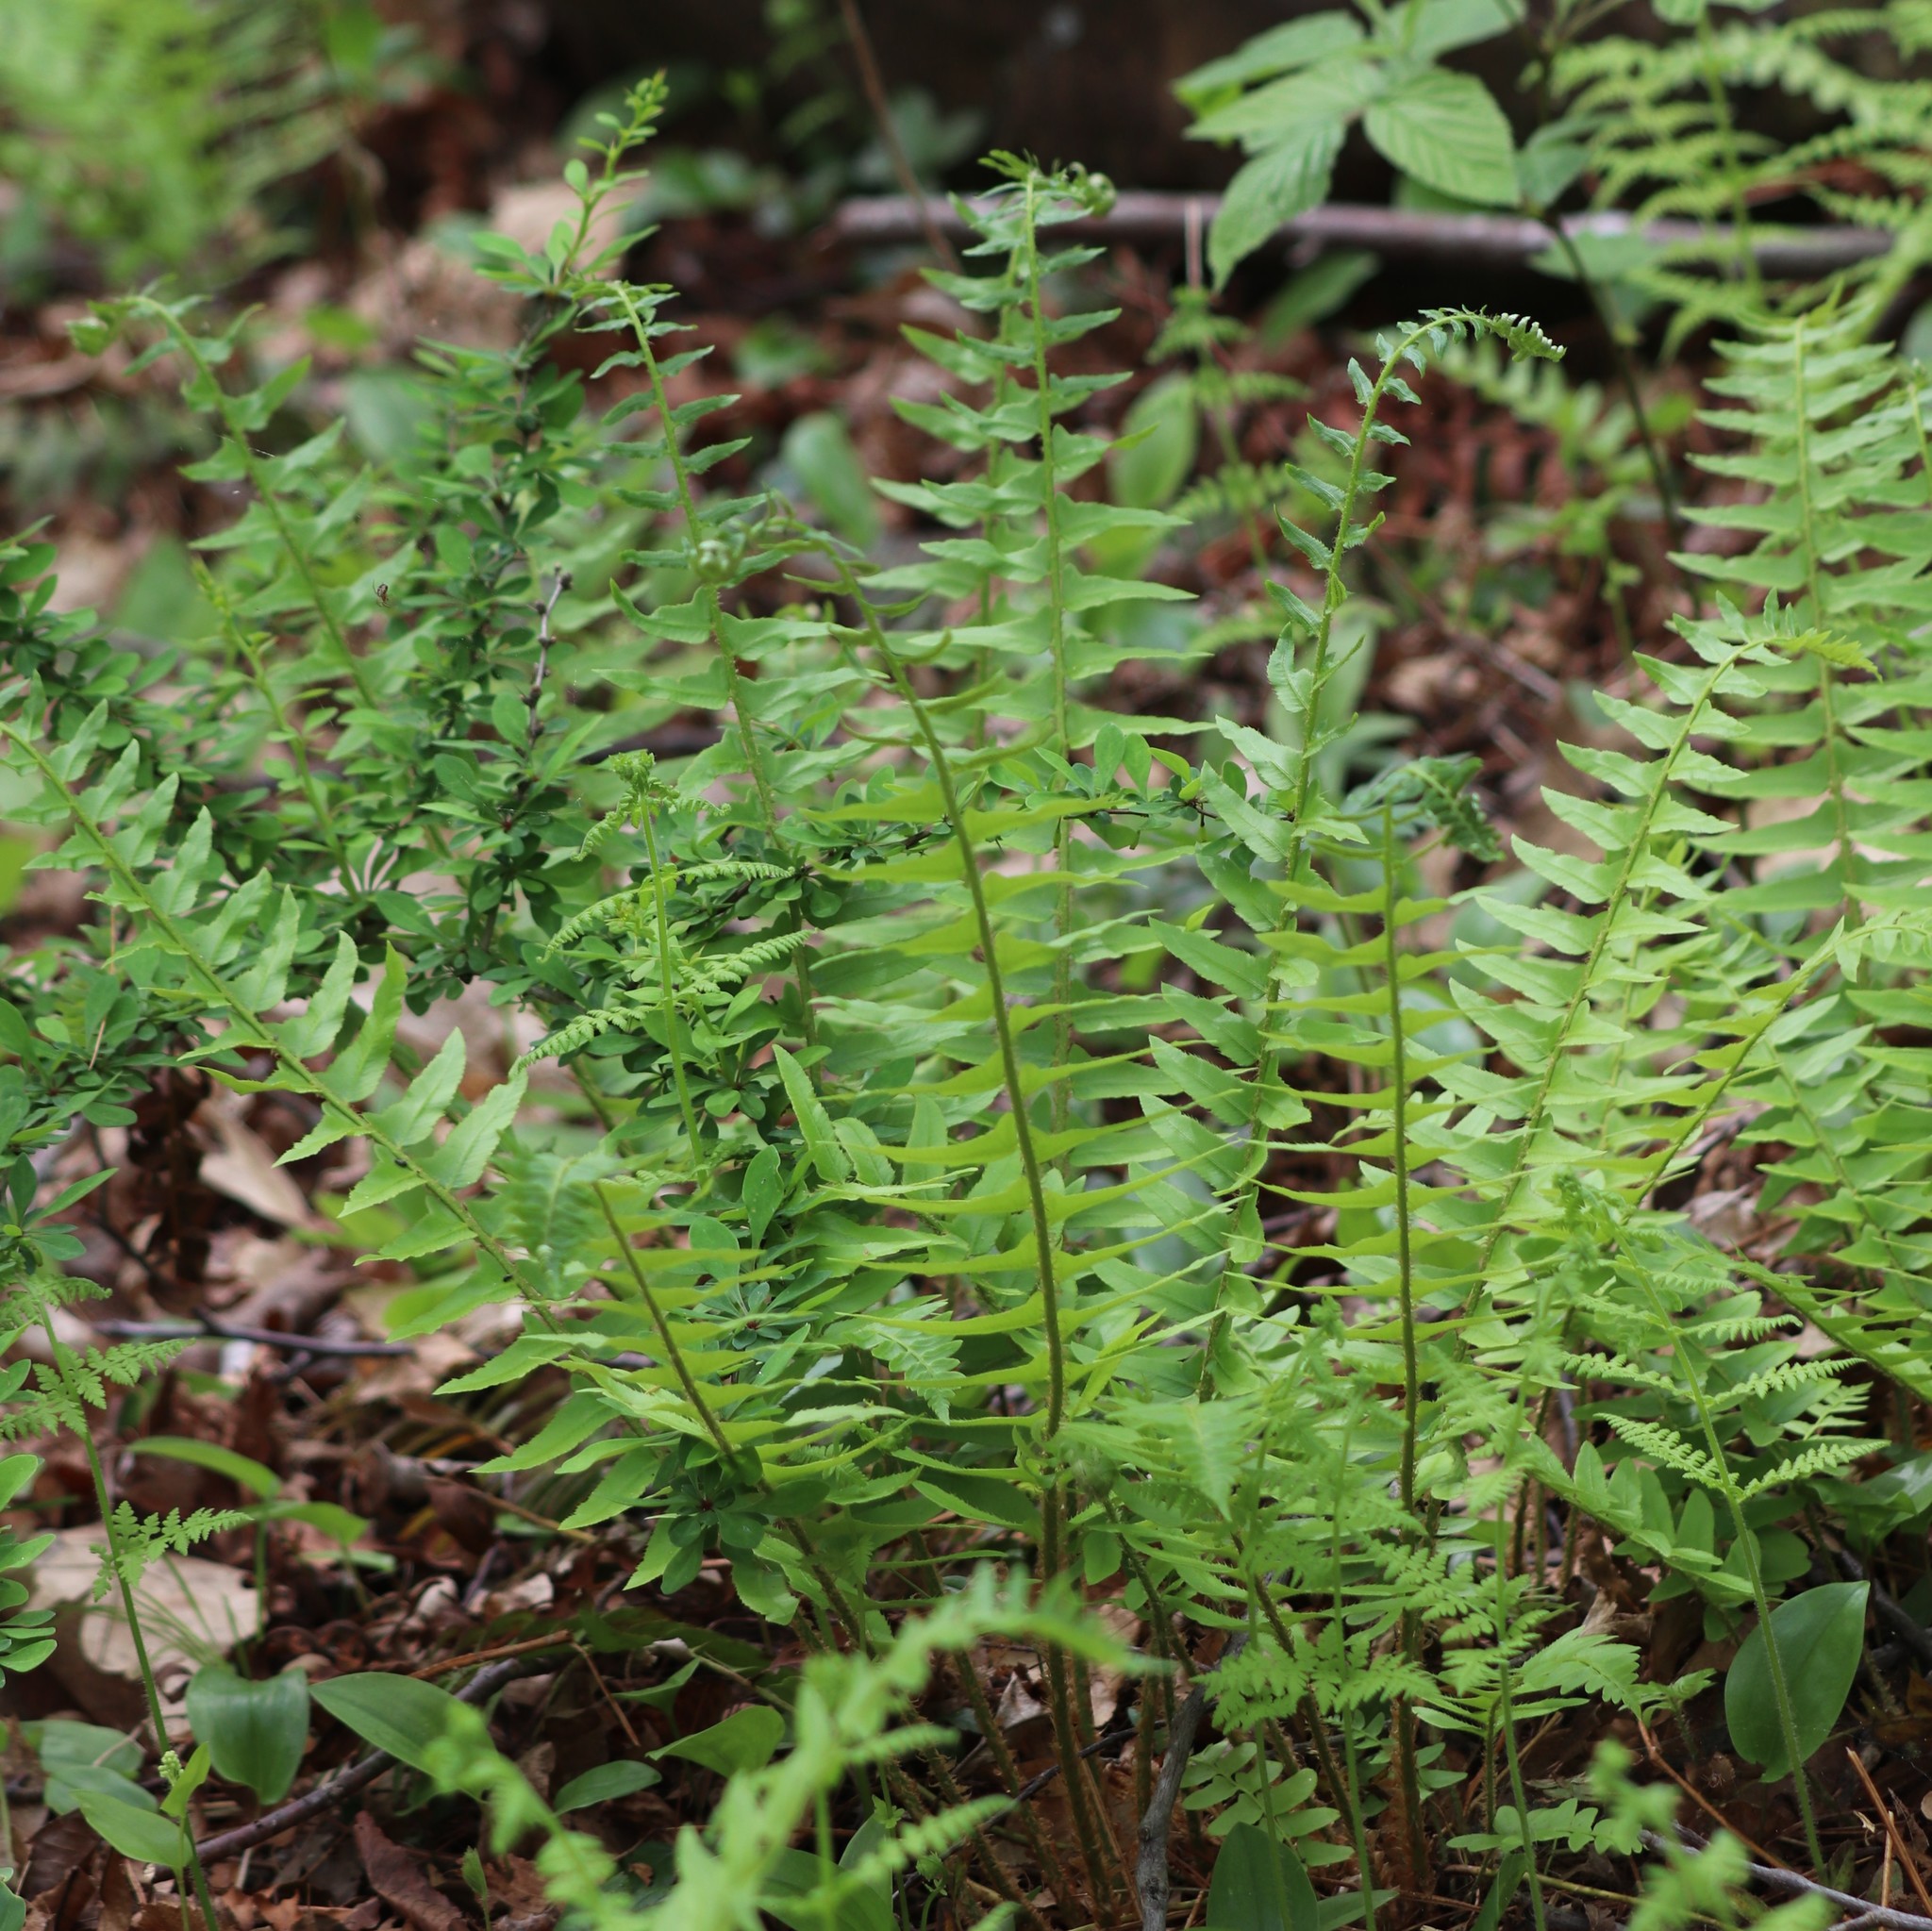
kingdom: Plantae
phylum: Tracheophyta
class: Polypodiopsida
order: Polypodiales
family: Dryopteridaceae
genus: Polystichum
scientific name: Polystichum acrostichoides
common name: Christmas fern
